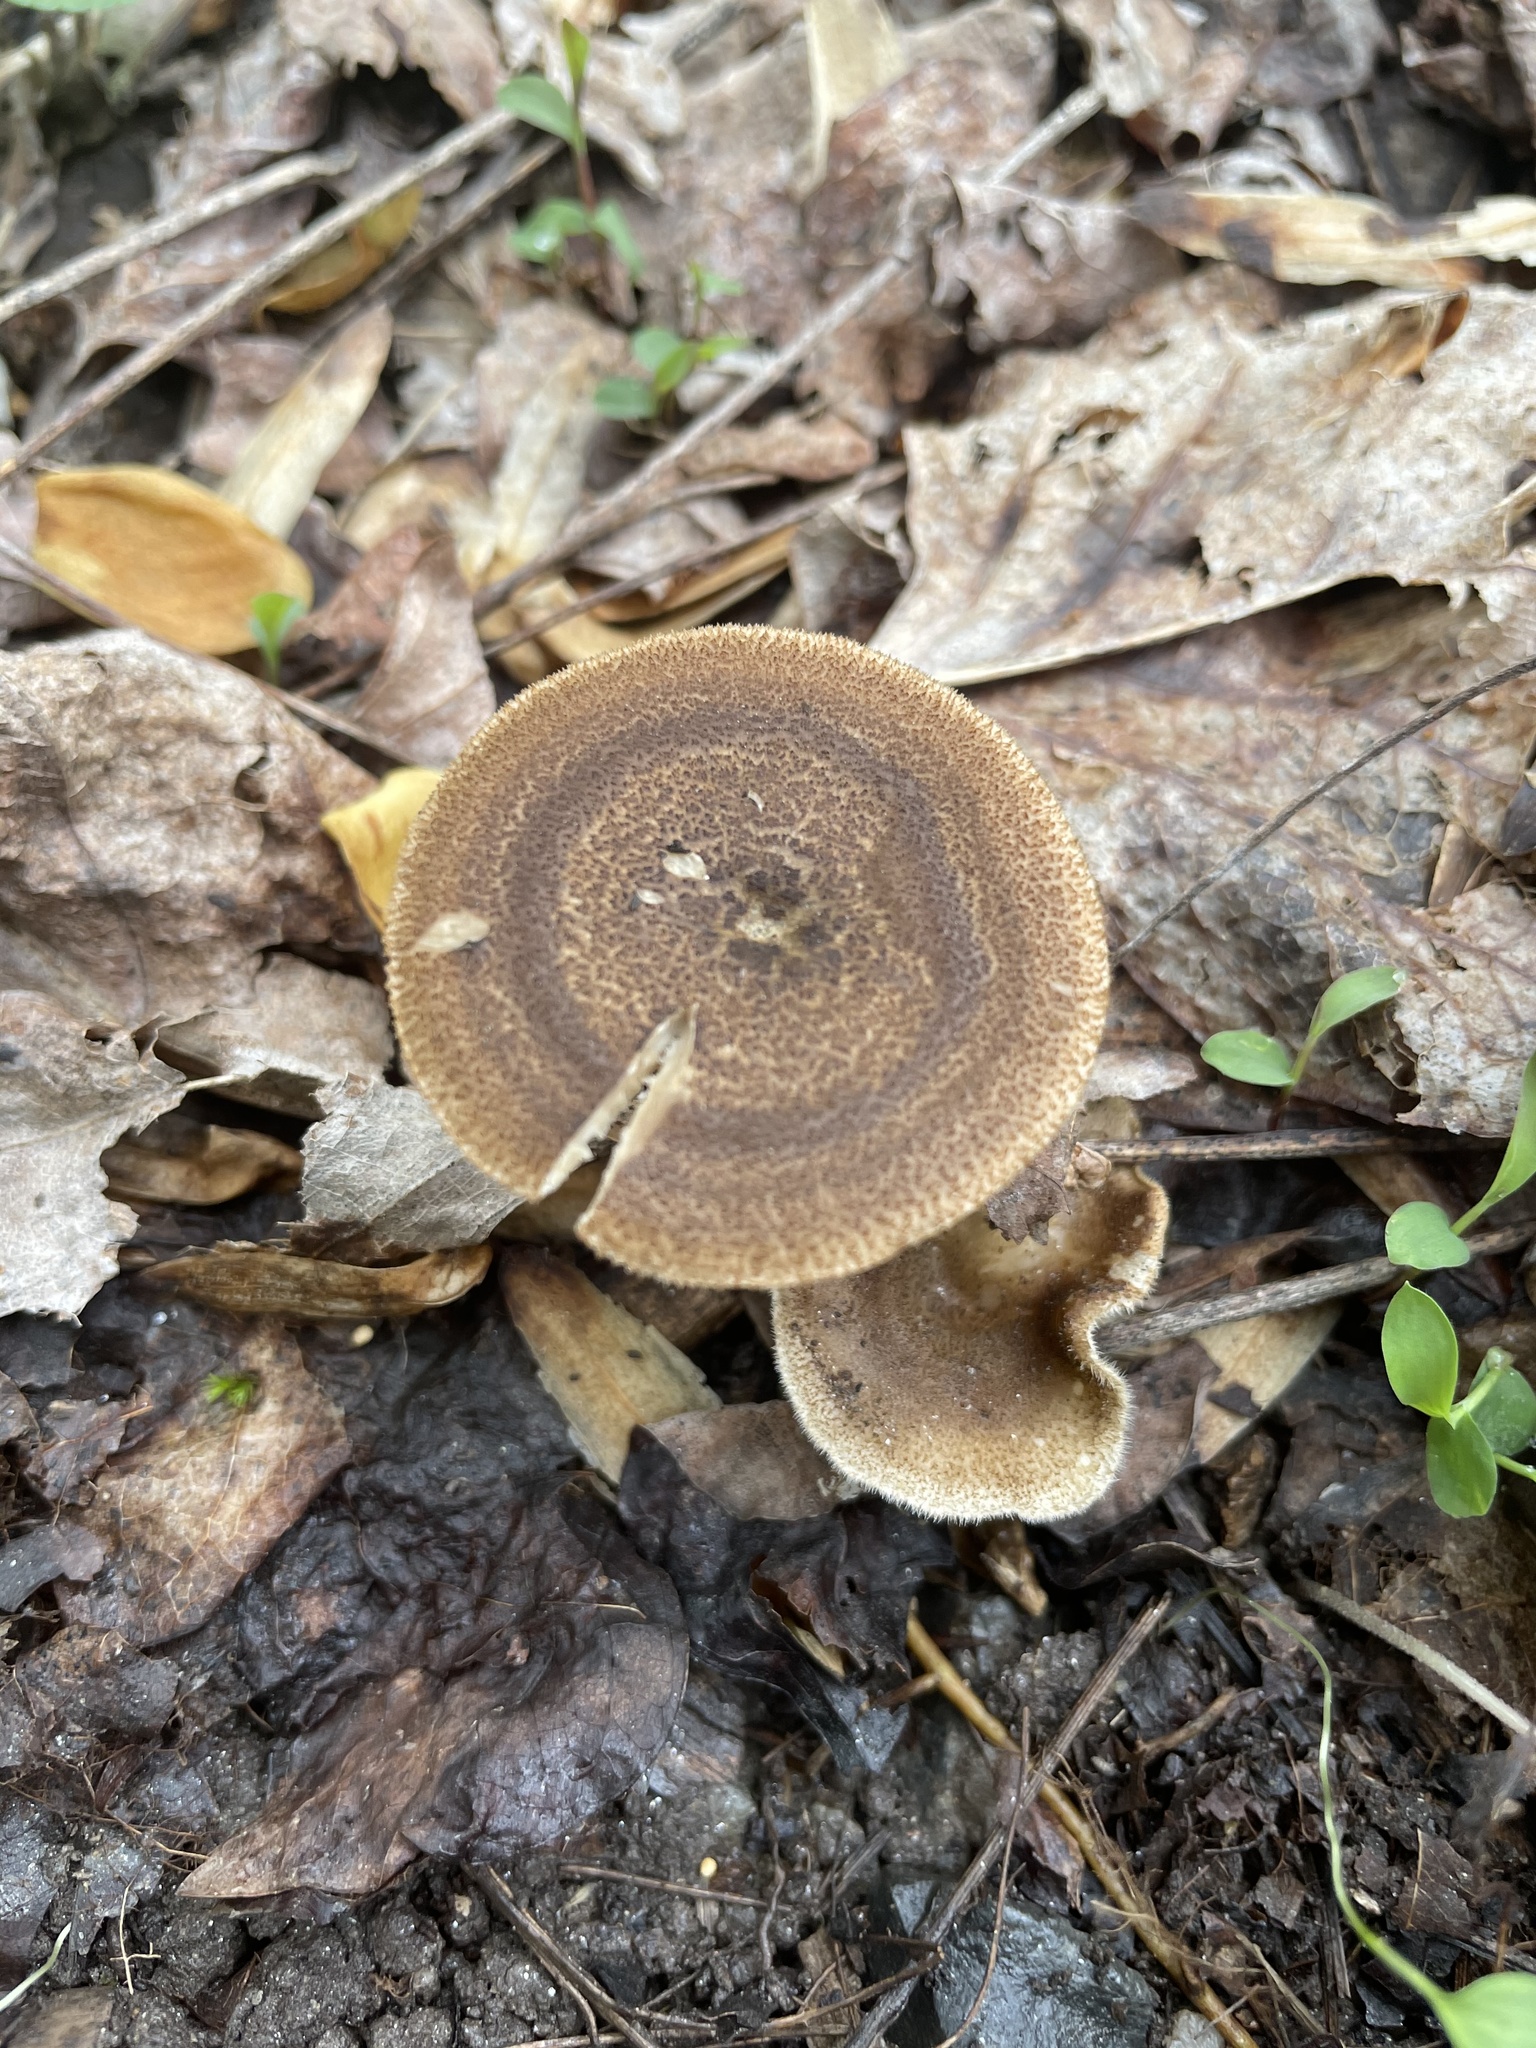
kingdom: Fungi
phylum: Basidiomycota
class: Agaricomycetes
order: Polyporales
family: Polyporaceae
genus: Lentinus
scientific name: Lentinus arcularius
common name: Spring polypore
